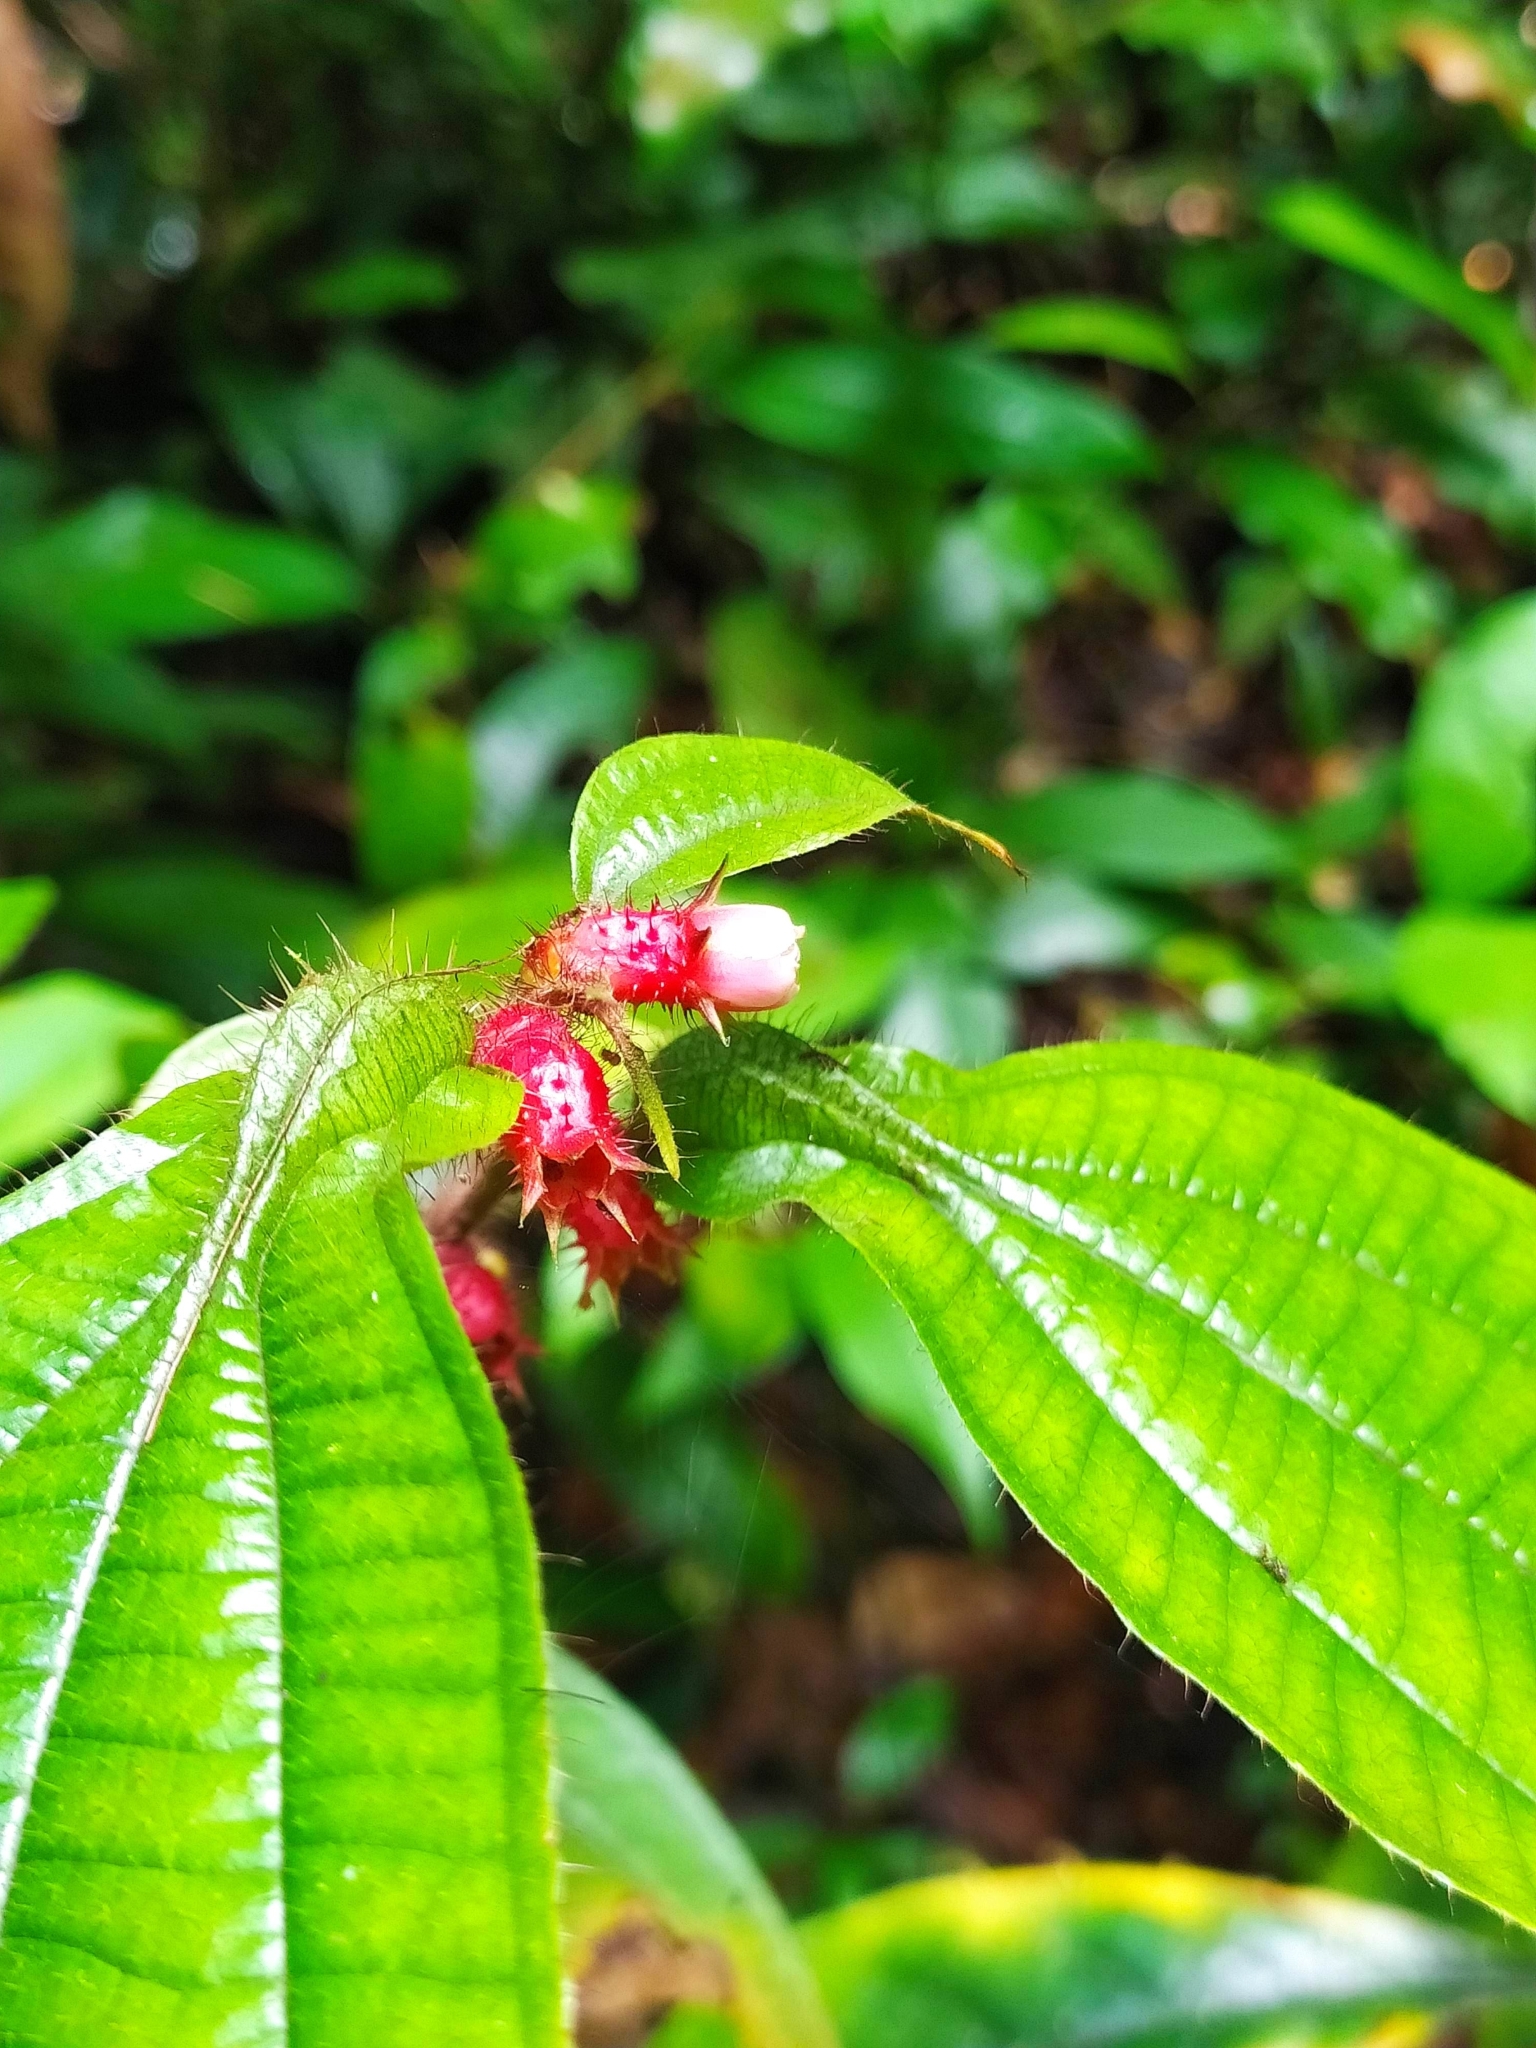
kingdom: Plantae
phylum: Tracheophyta
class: Magnoliopsida
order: Myrtales
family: Melastomataceae
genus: Miconia
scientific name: Miconia mayeta
